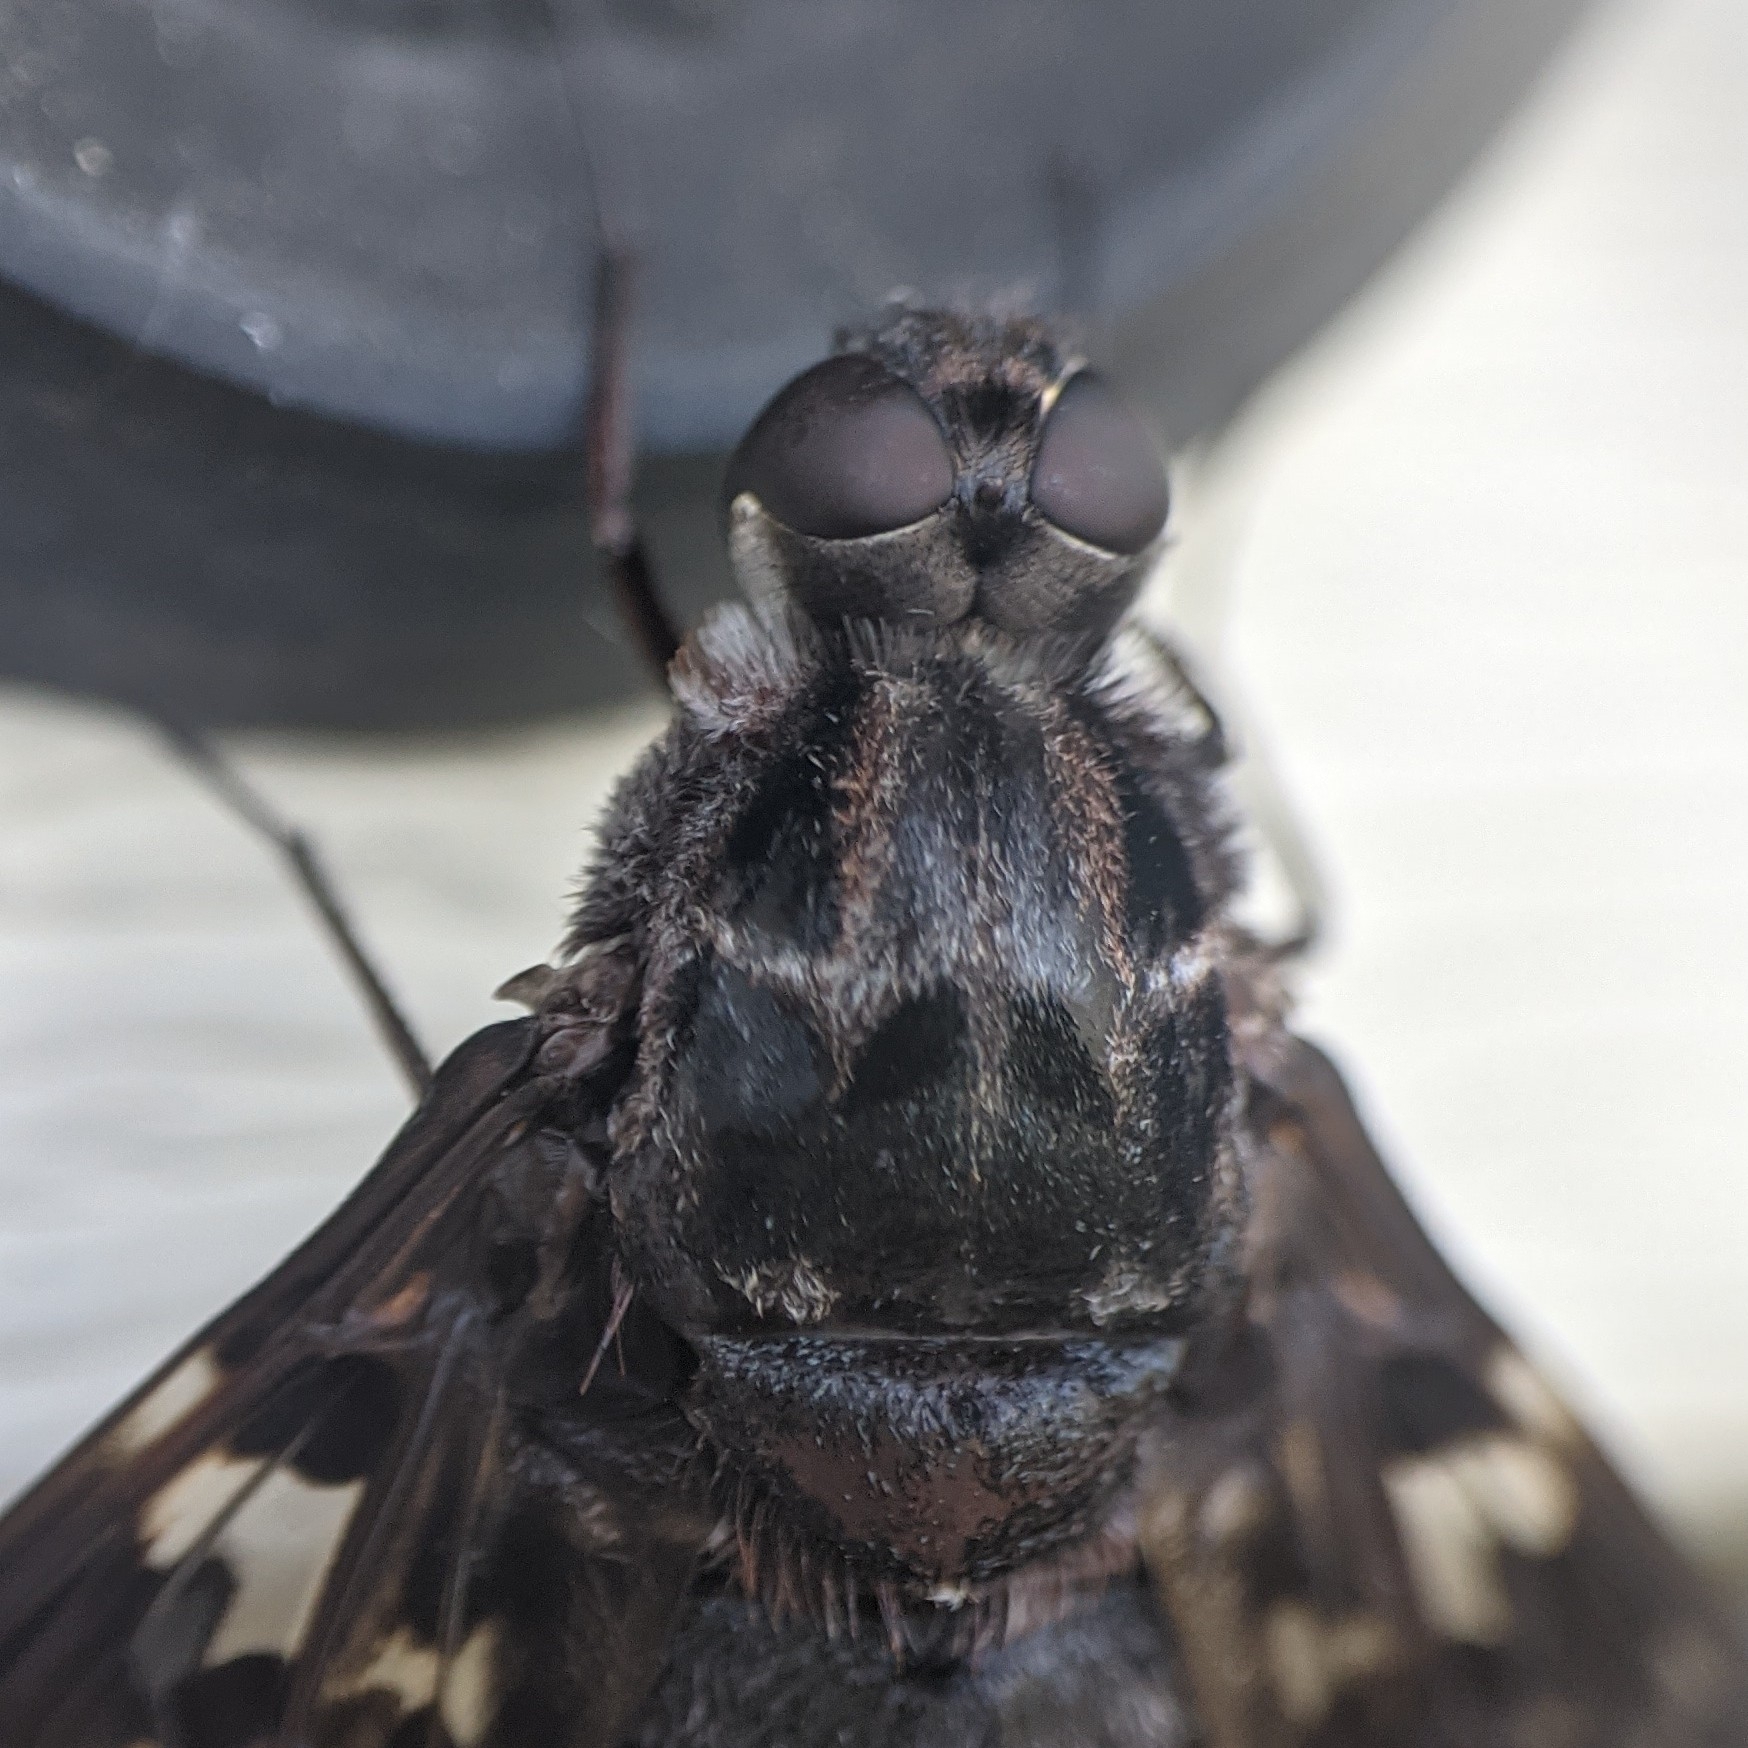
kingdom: Animalia
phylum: Arthropoda
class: Insecta
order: Diptera
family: Bombyliidae
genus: Xenox
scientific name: Xenox tigrinus
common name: Tiger bee fly
